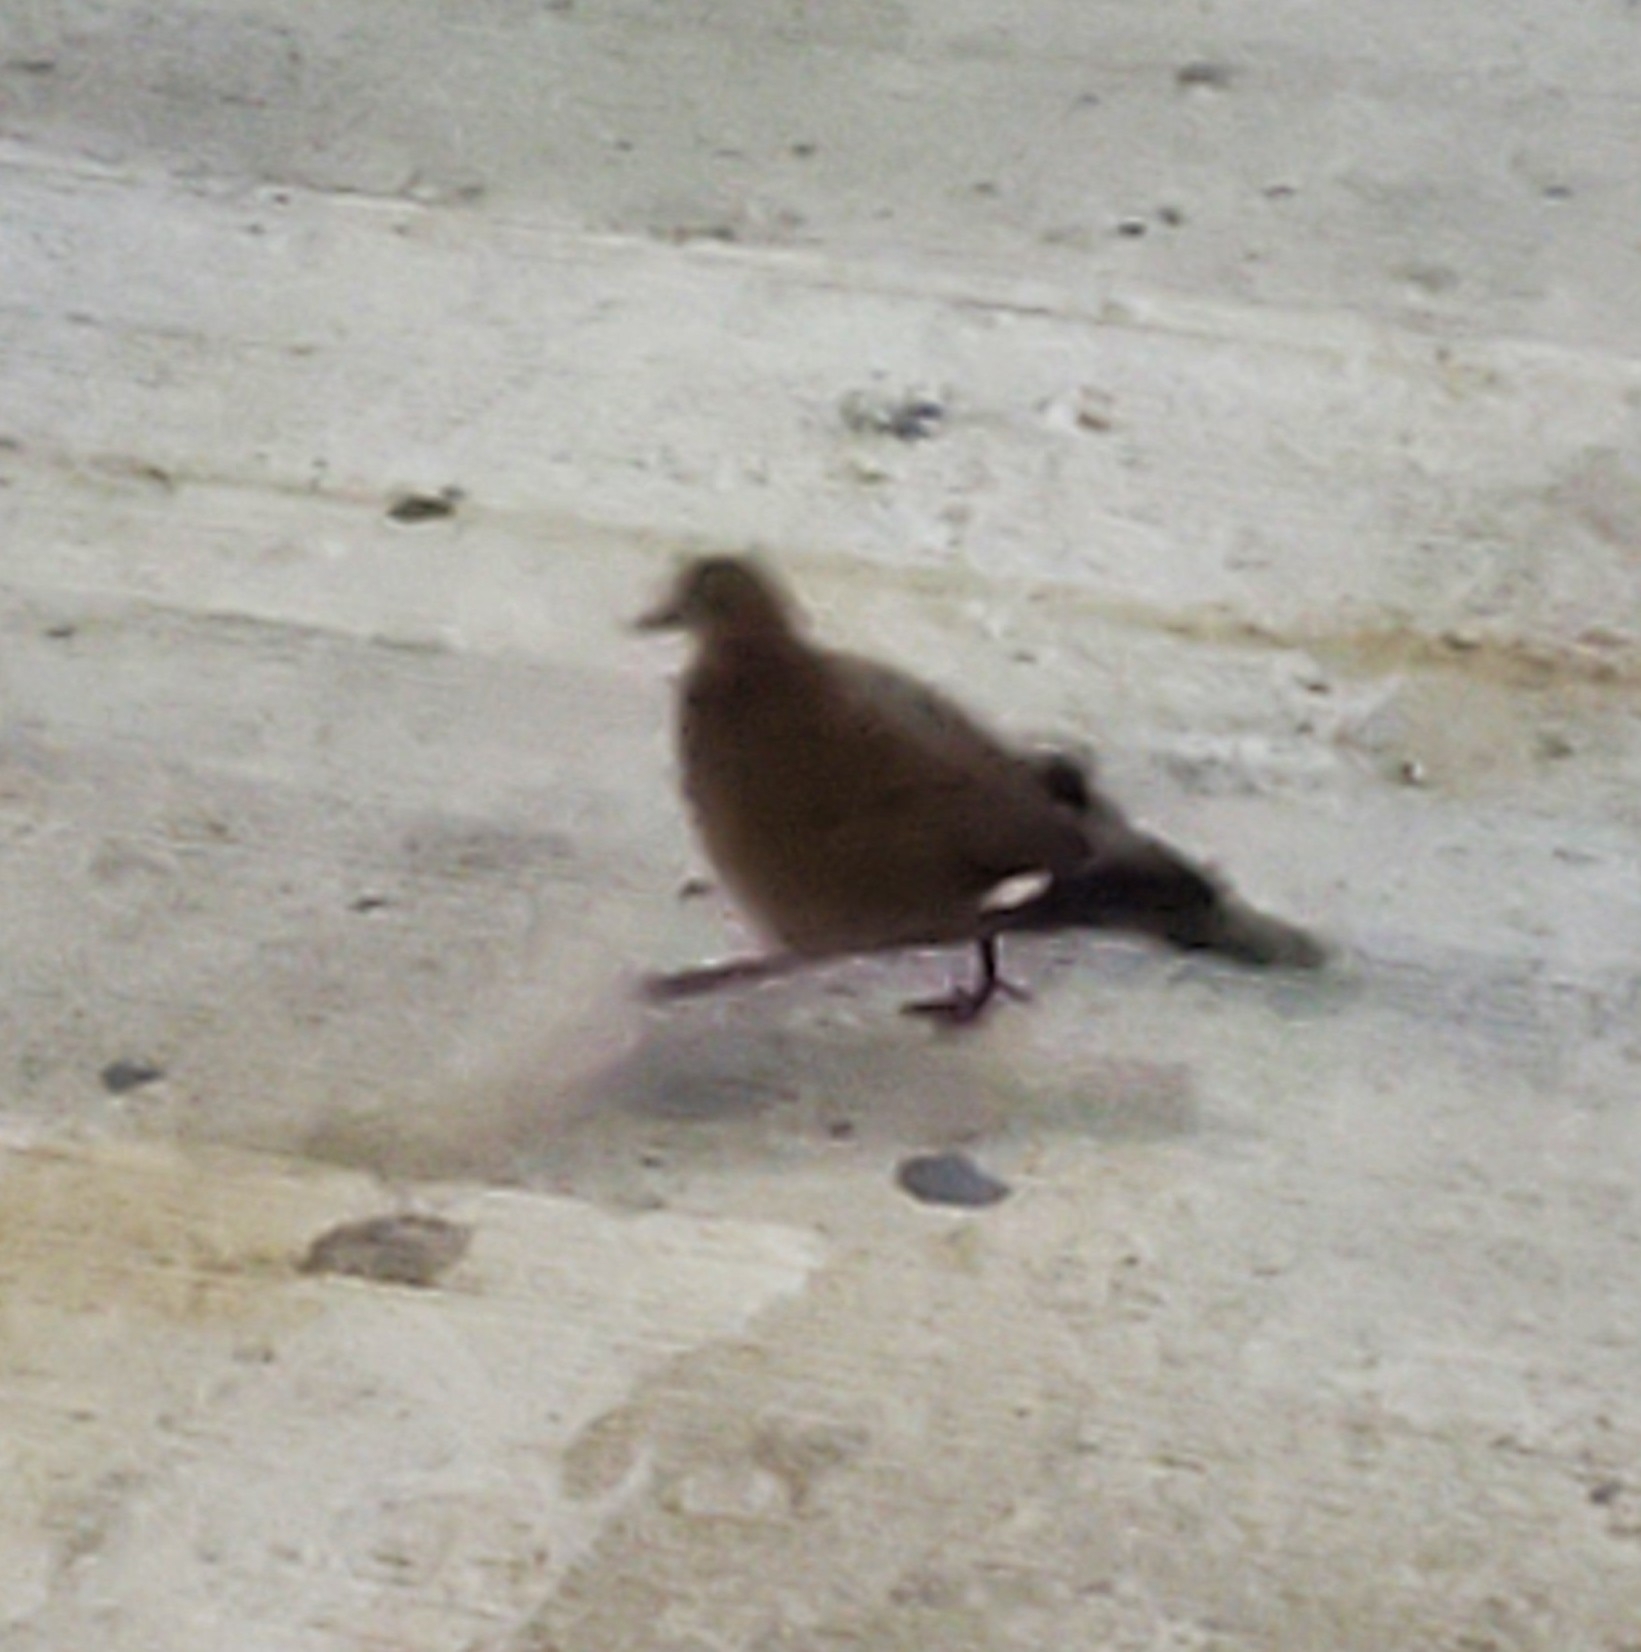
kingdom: Animalia
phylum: Chordata
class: Aves
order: Columbiformes
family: Columbidae
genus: Zenaida
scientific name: Zenaida aurita
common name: Zenaida dove
